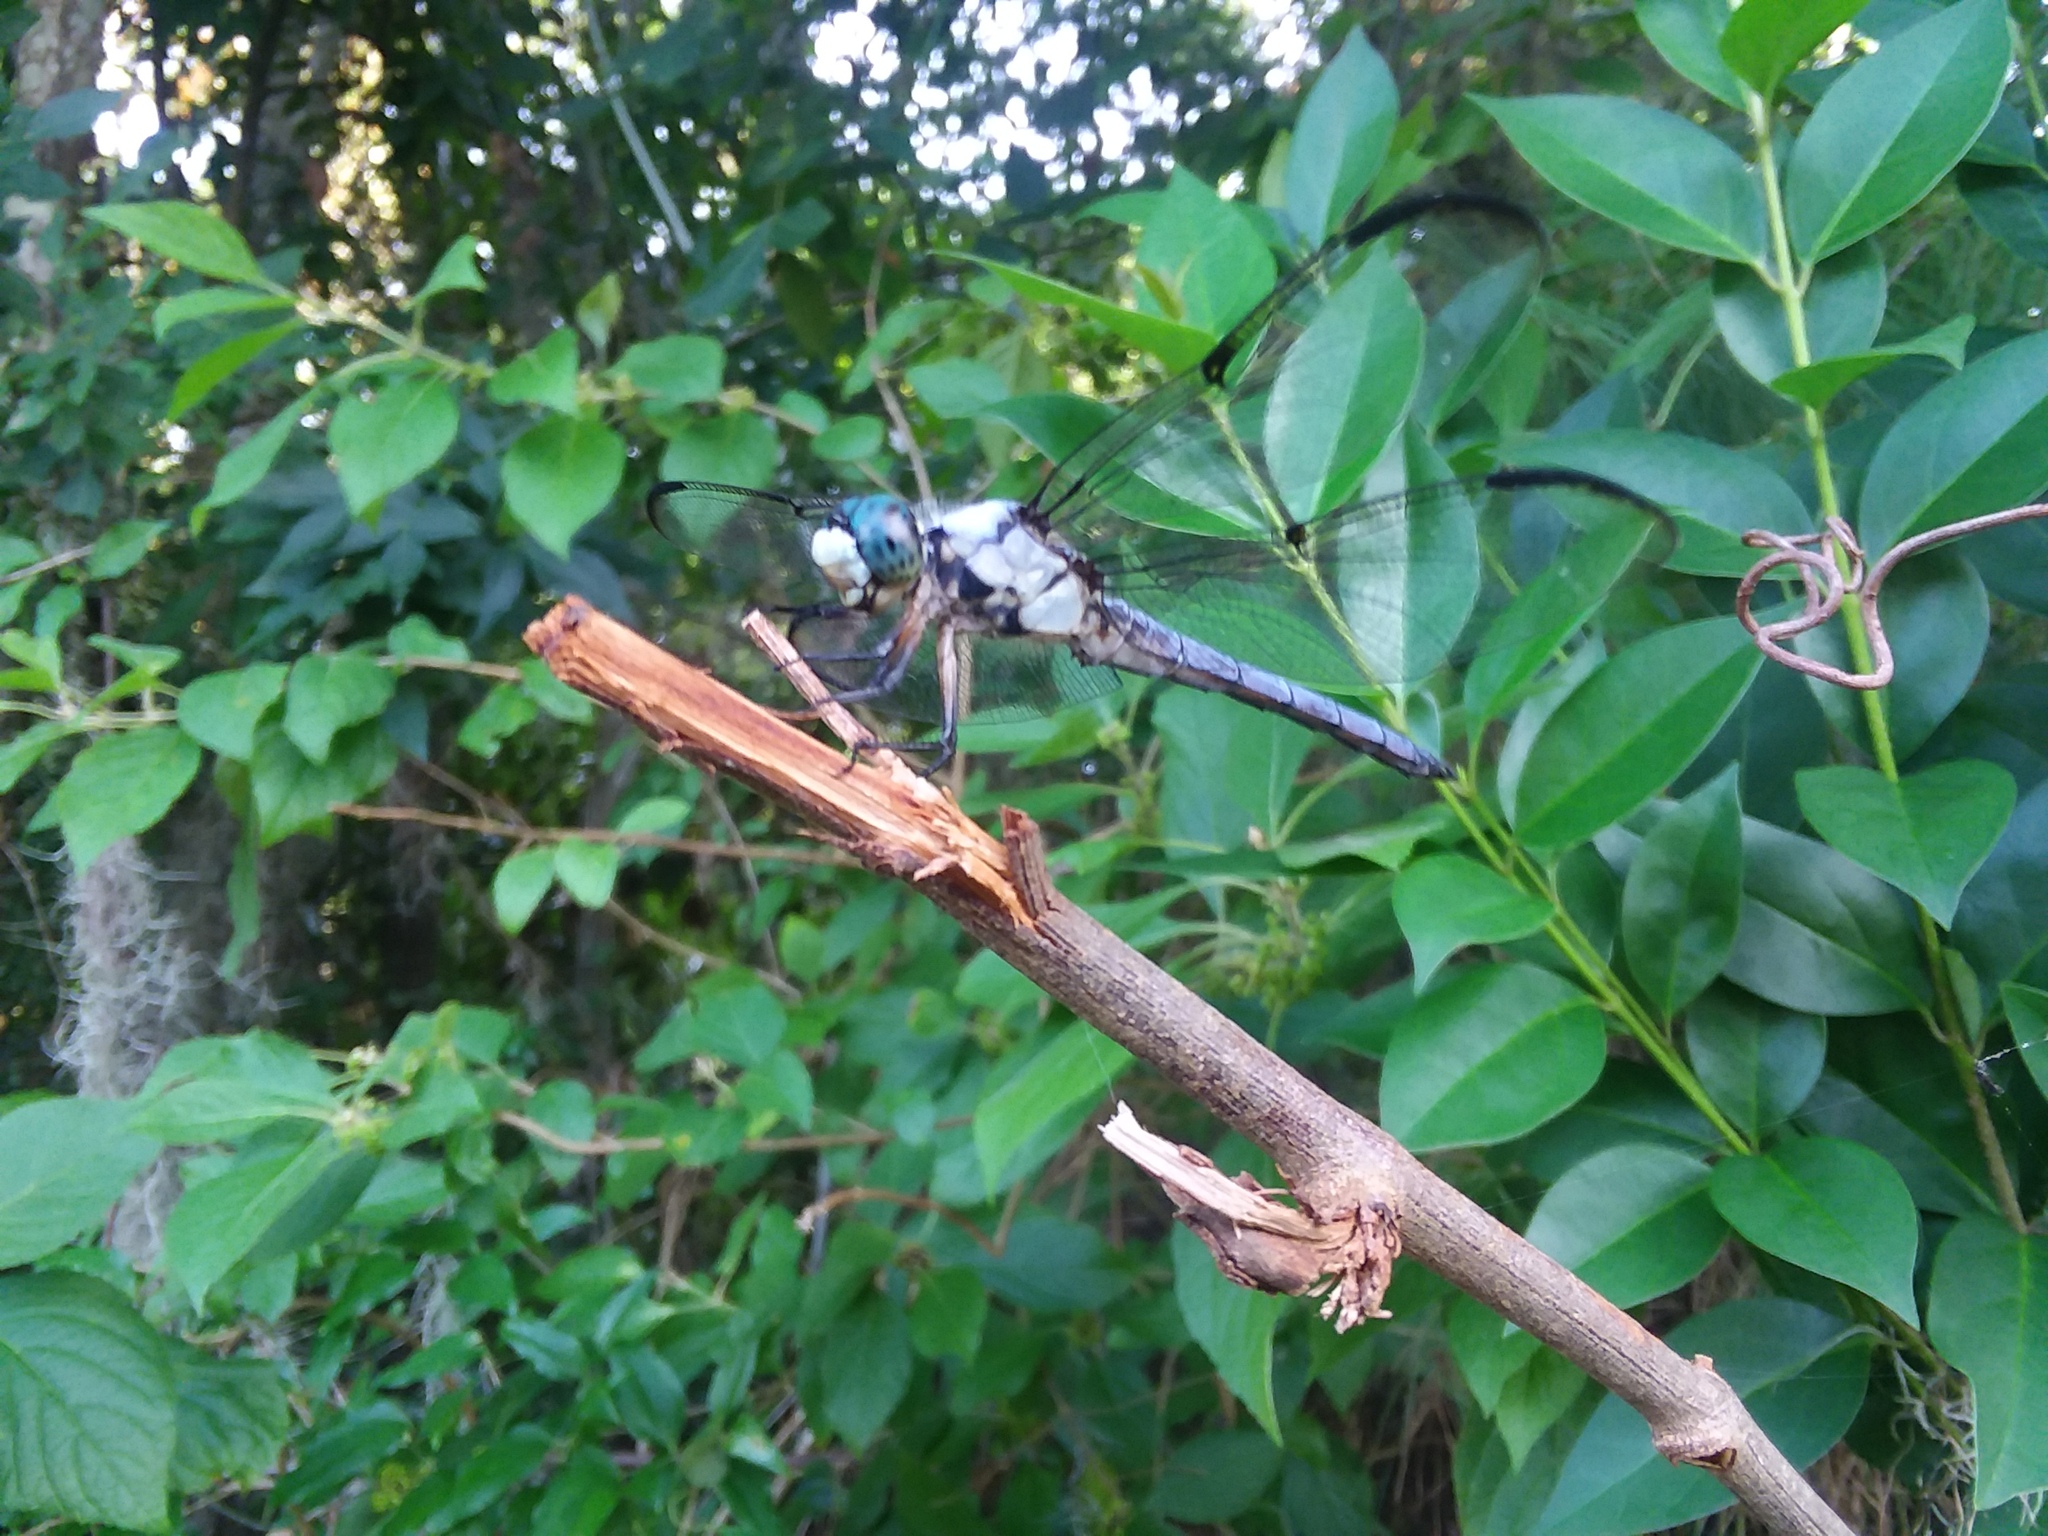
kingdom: Animalia
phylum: Arthropoda
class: Insecta
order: Odonata
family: Libellulidae
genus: Libellula
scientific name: Libellula vibrans
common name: Great blue skimmer
